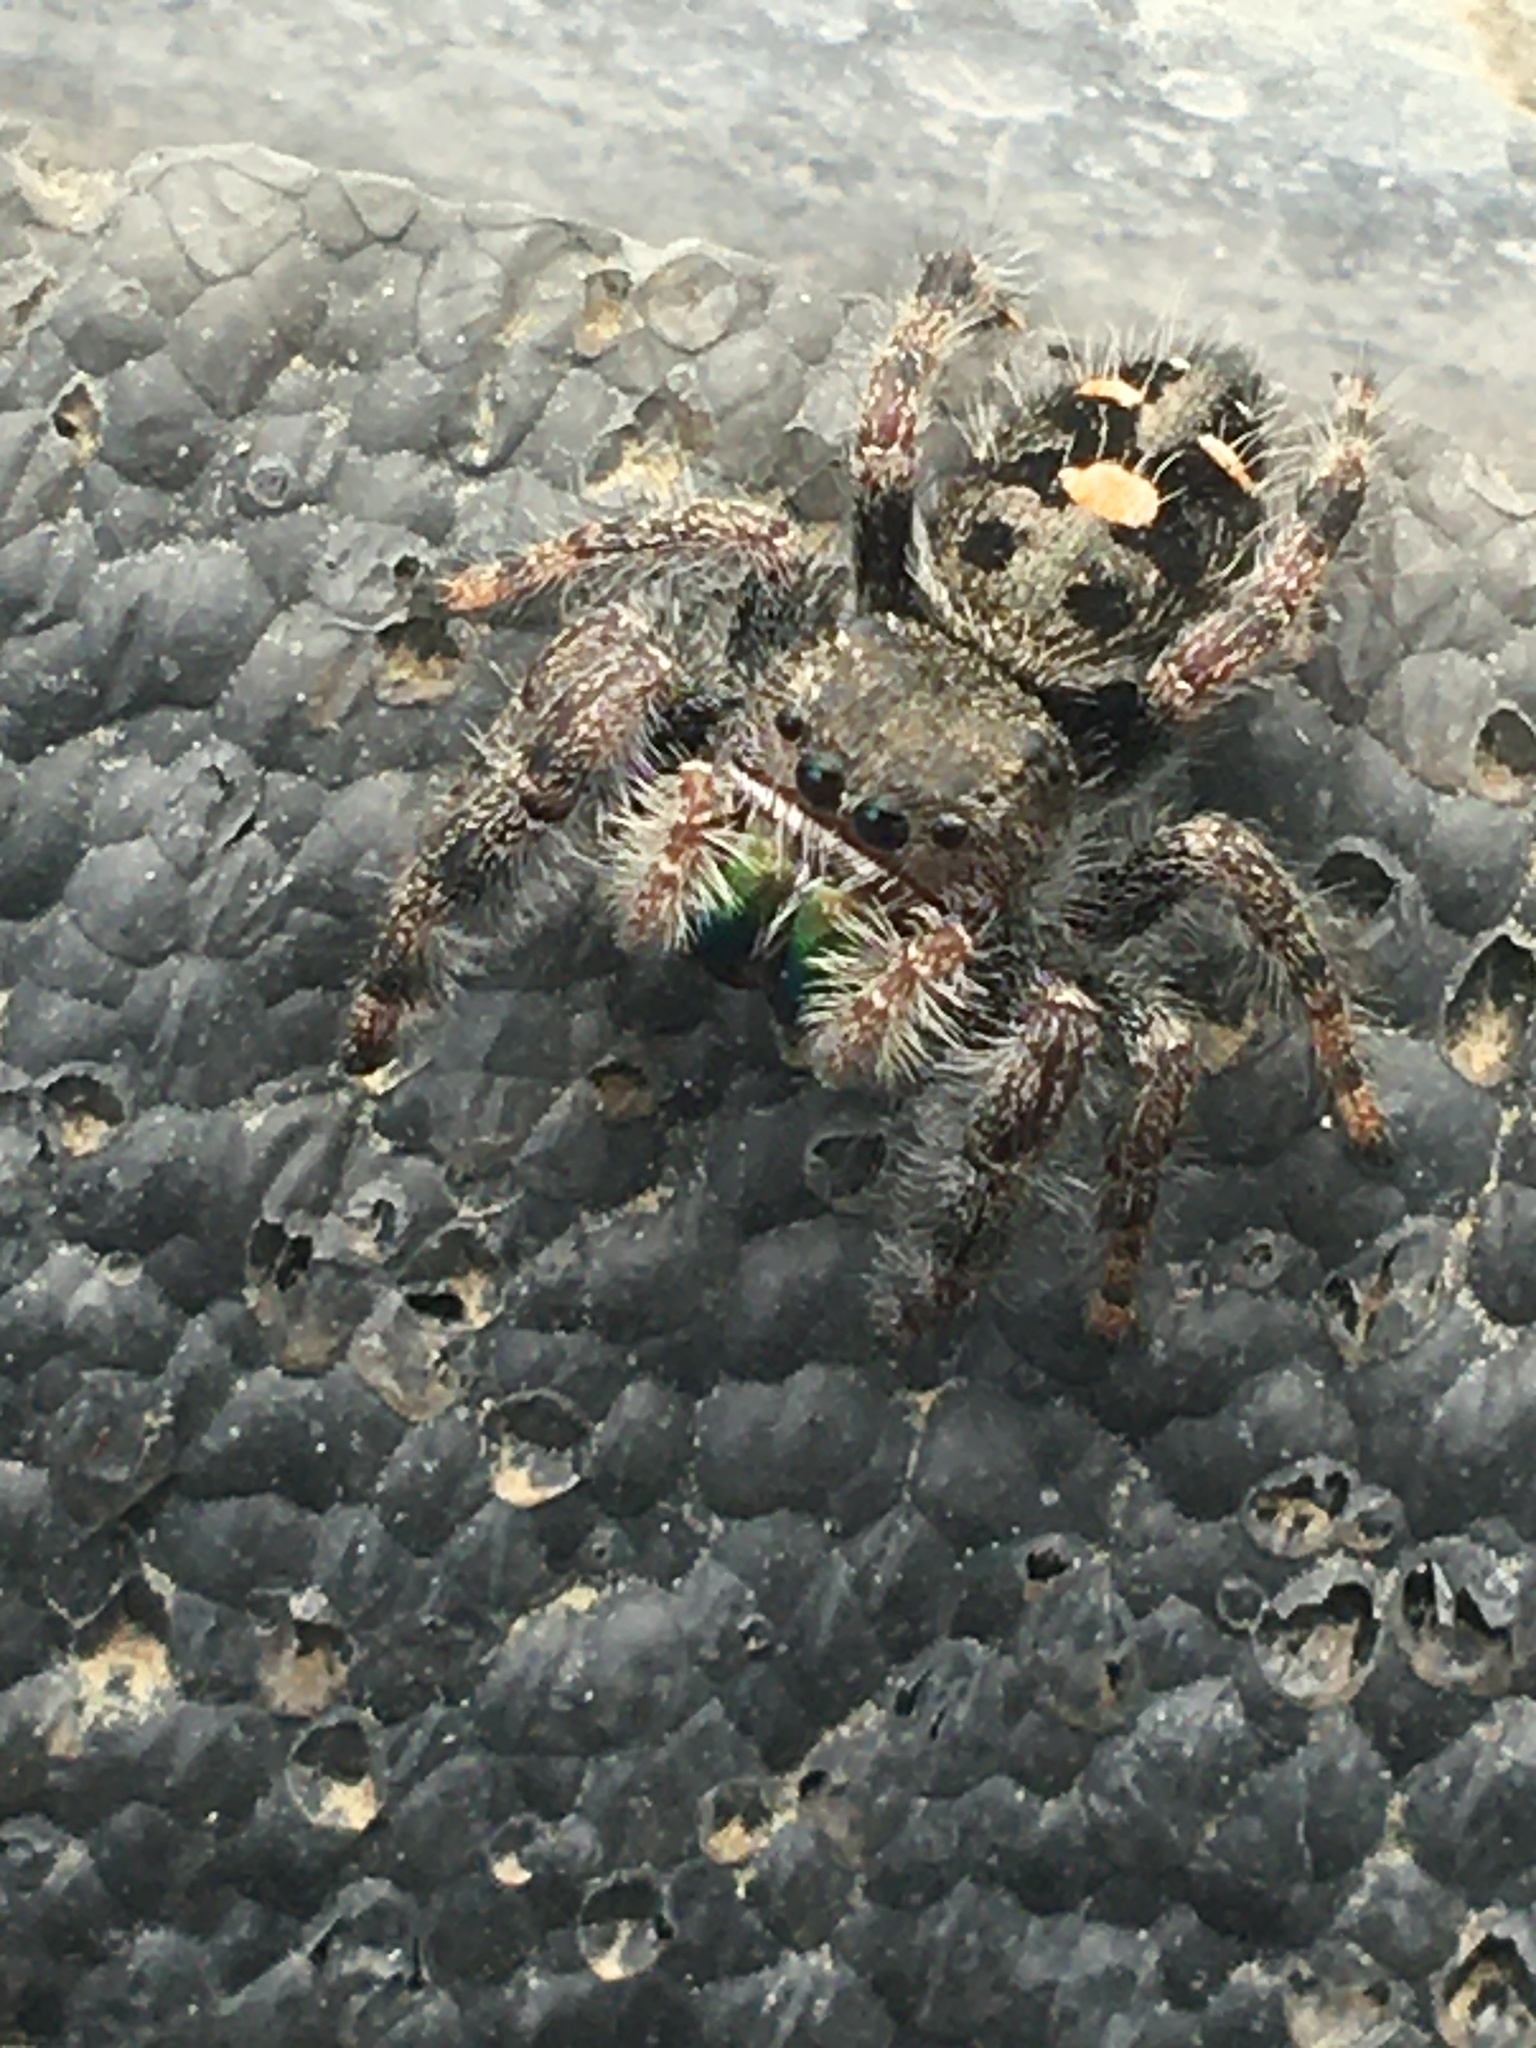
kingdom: Animalia
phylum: Arthropoda
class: Arachnida
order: Araneae
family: Salticidae
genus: Phidippus
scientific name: Phidippus audax
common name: Bold jumper
